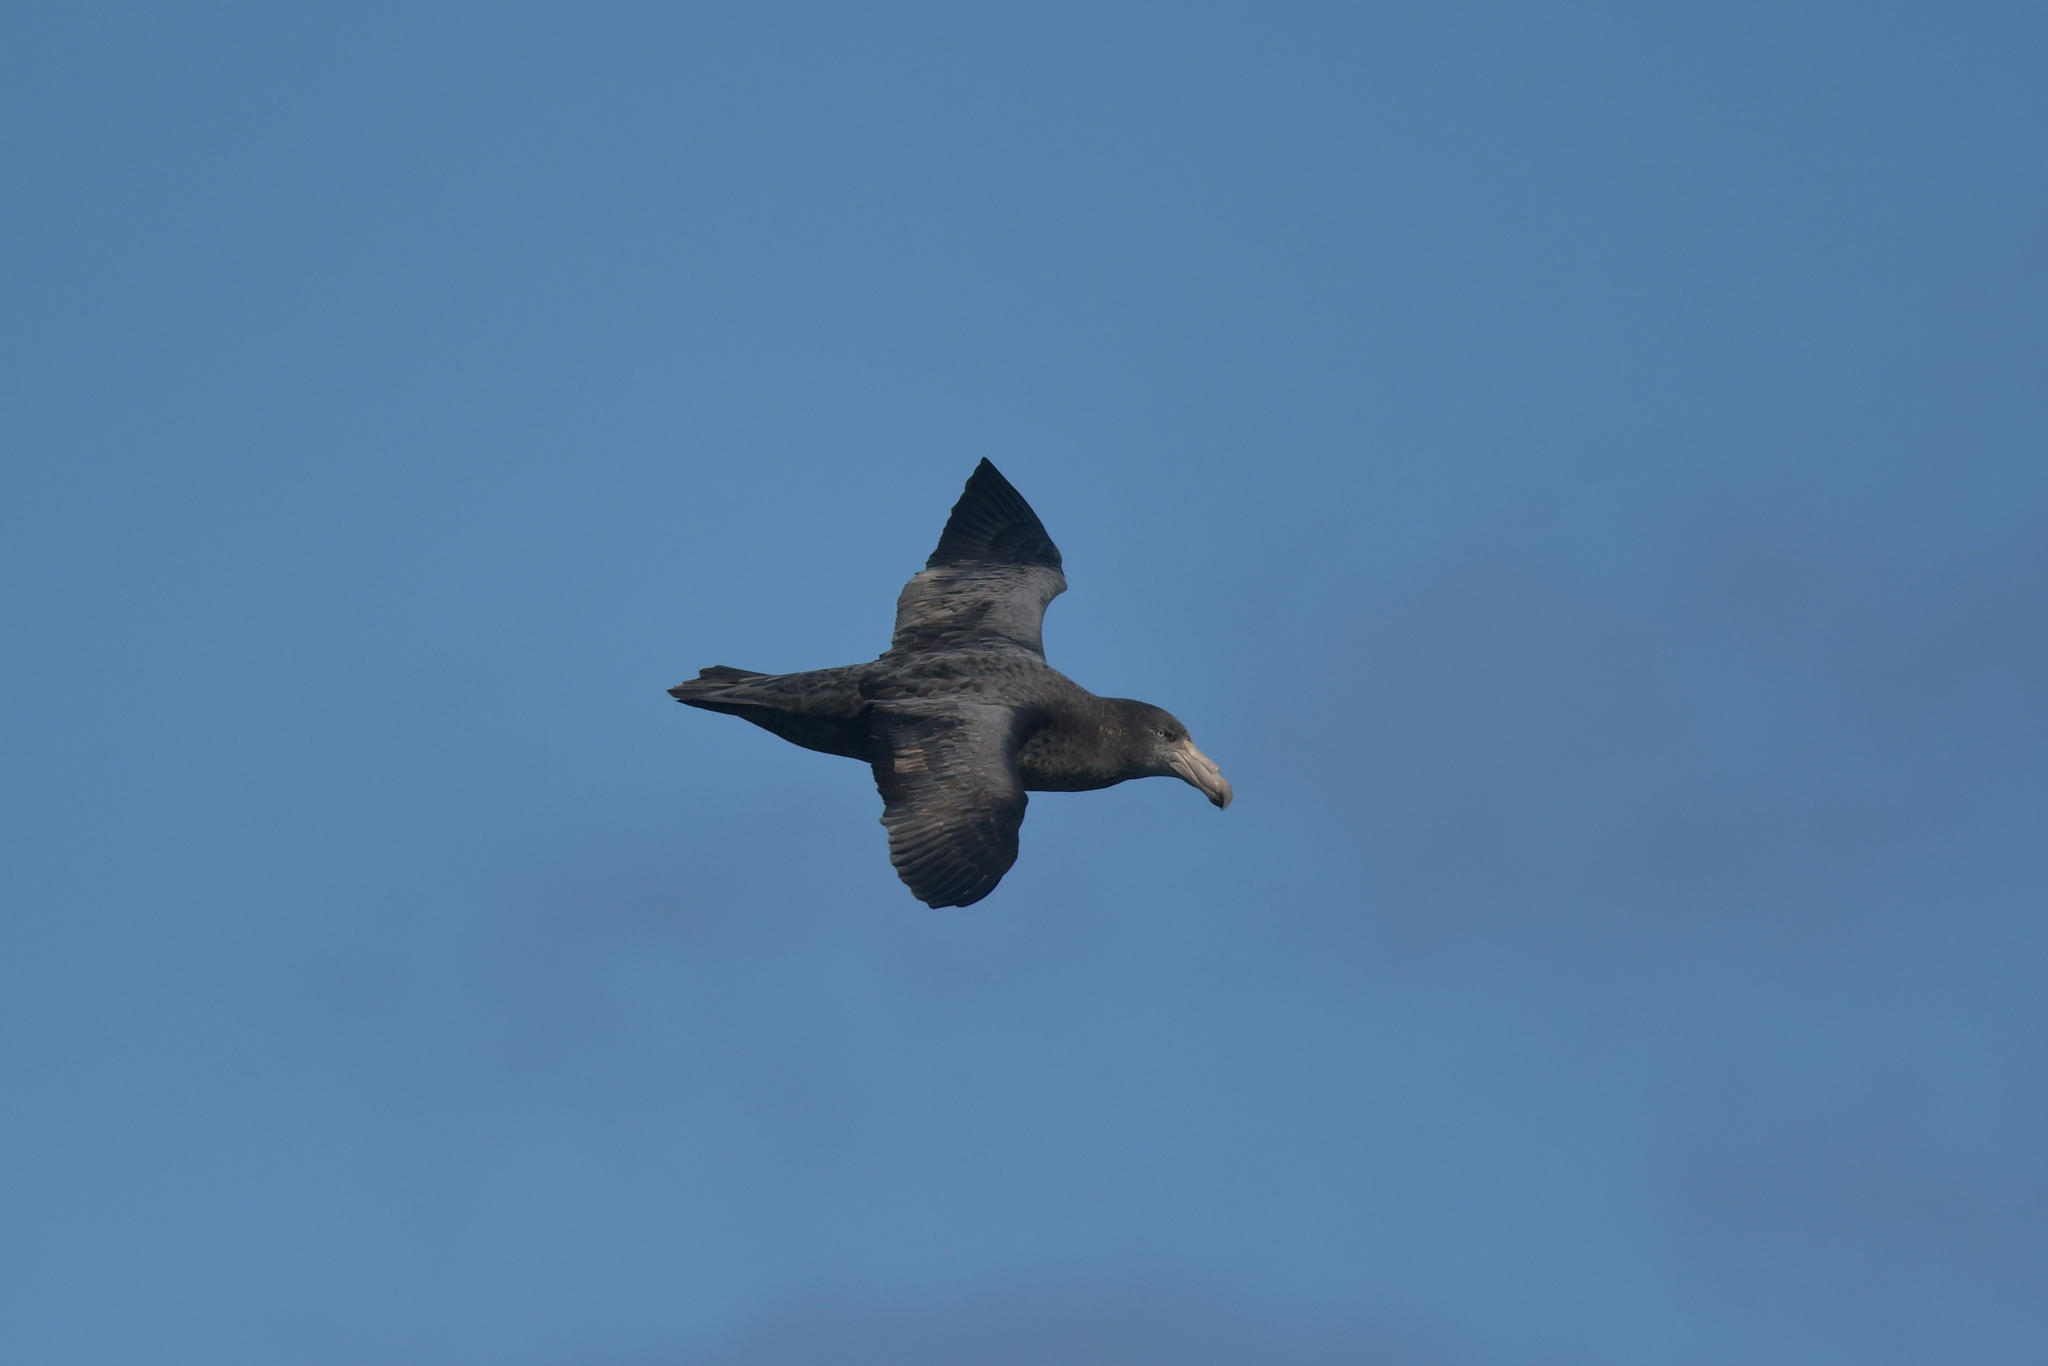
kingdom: Animalia
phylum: Chordata
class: Aves
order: Procellariiformes
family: Procellariidae
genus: Macronectes
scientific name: Macronectes halli
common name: Northern giant petrel
